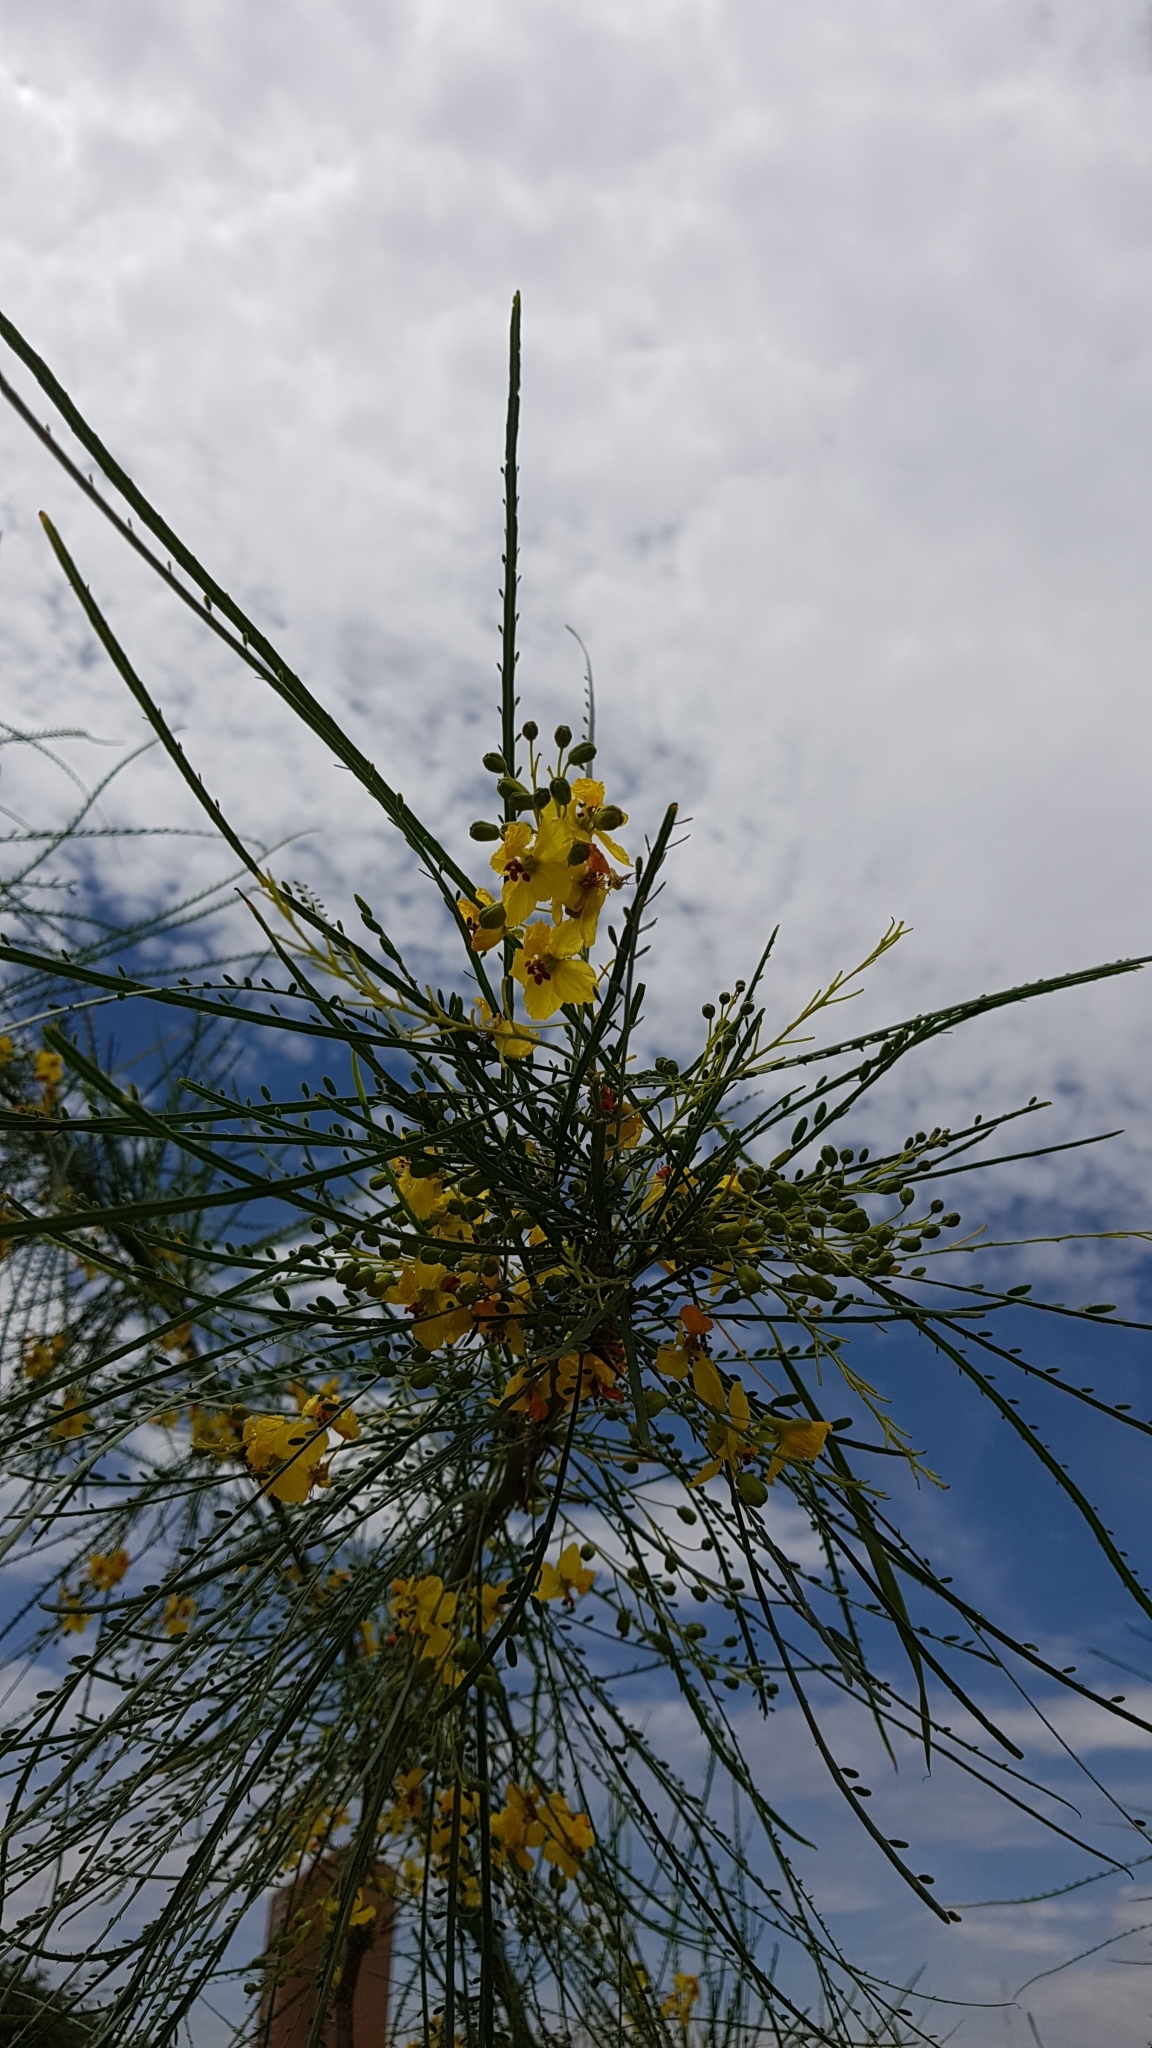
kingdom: Plantae
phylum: Tracheophyta
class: Magnoliopsida
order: Fabales
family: Fabaceae
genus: Parkinsonia
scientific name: Parkinsonia aculeata
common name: Jerusalem thorn
